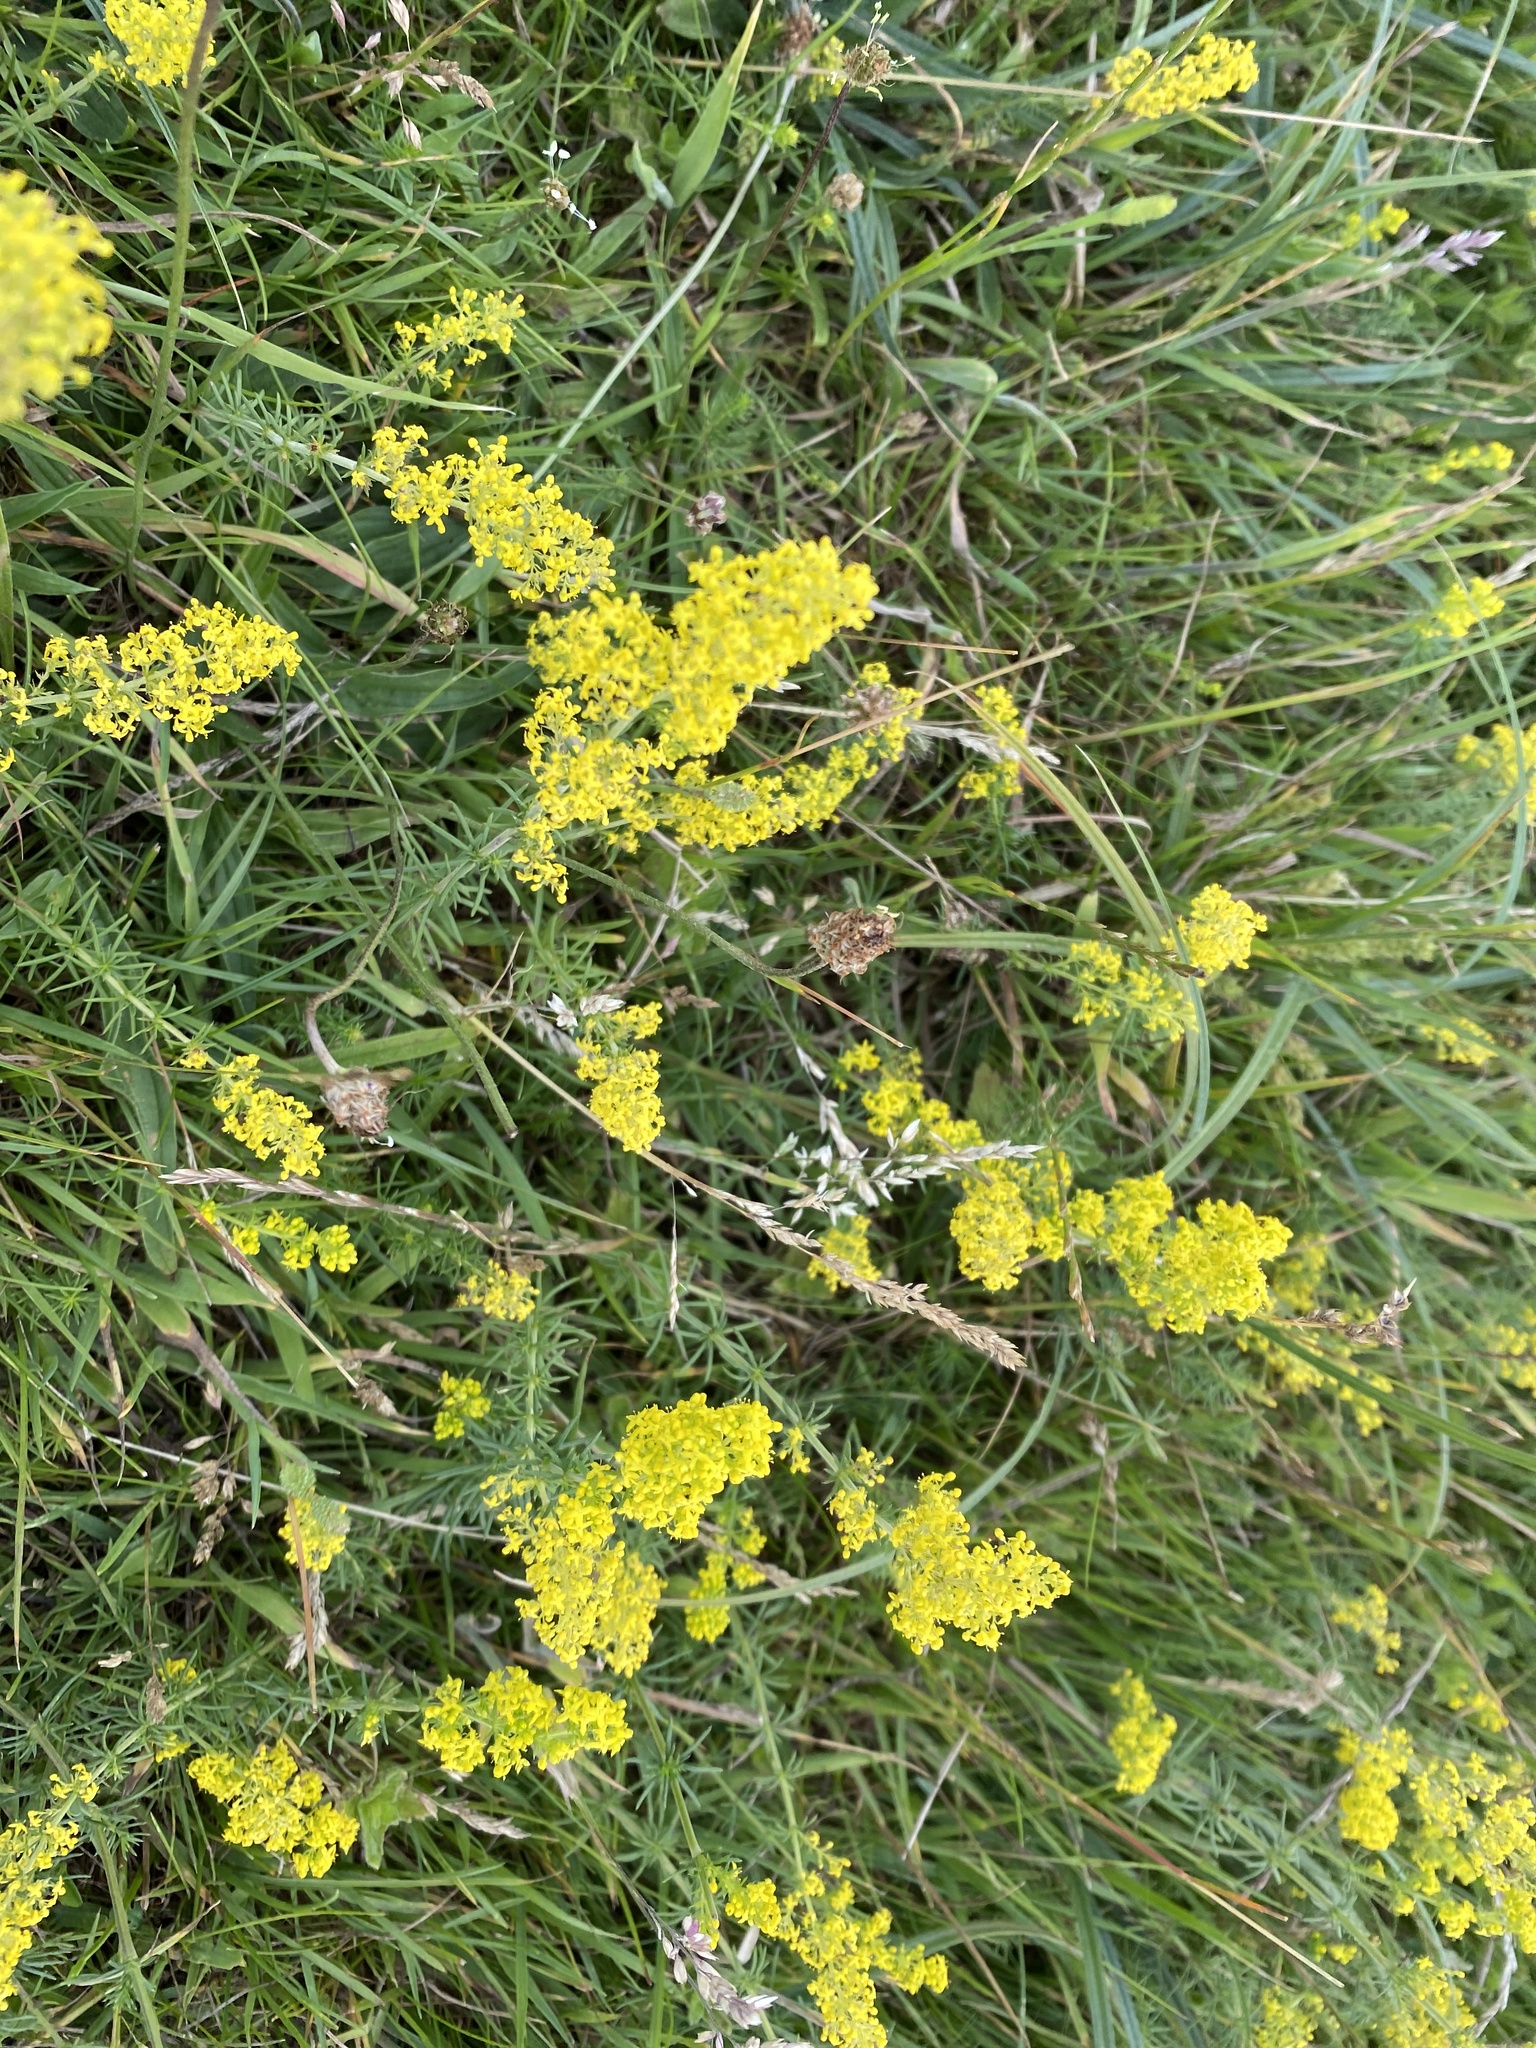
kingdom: Plantae
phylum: Tracheophyta
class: Magnoliopsida
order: Gentianales
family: Rubiaceae
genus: Galium
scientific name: Galium verum
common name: Lady's bedstraw
